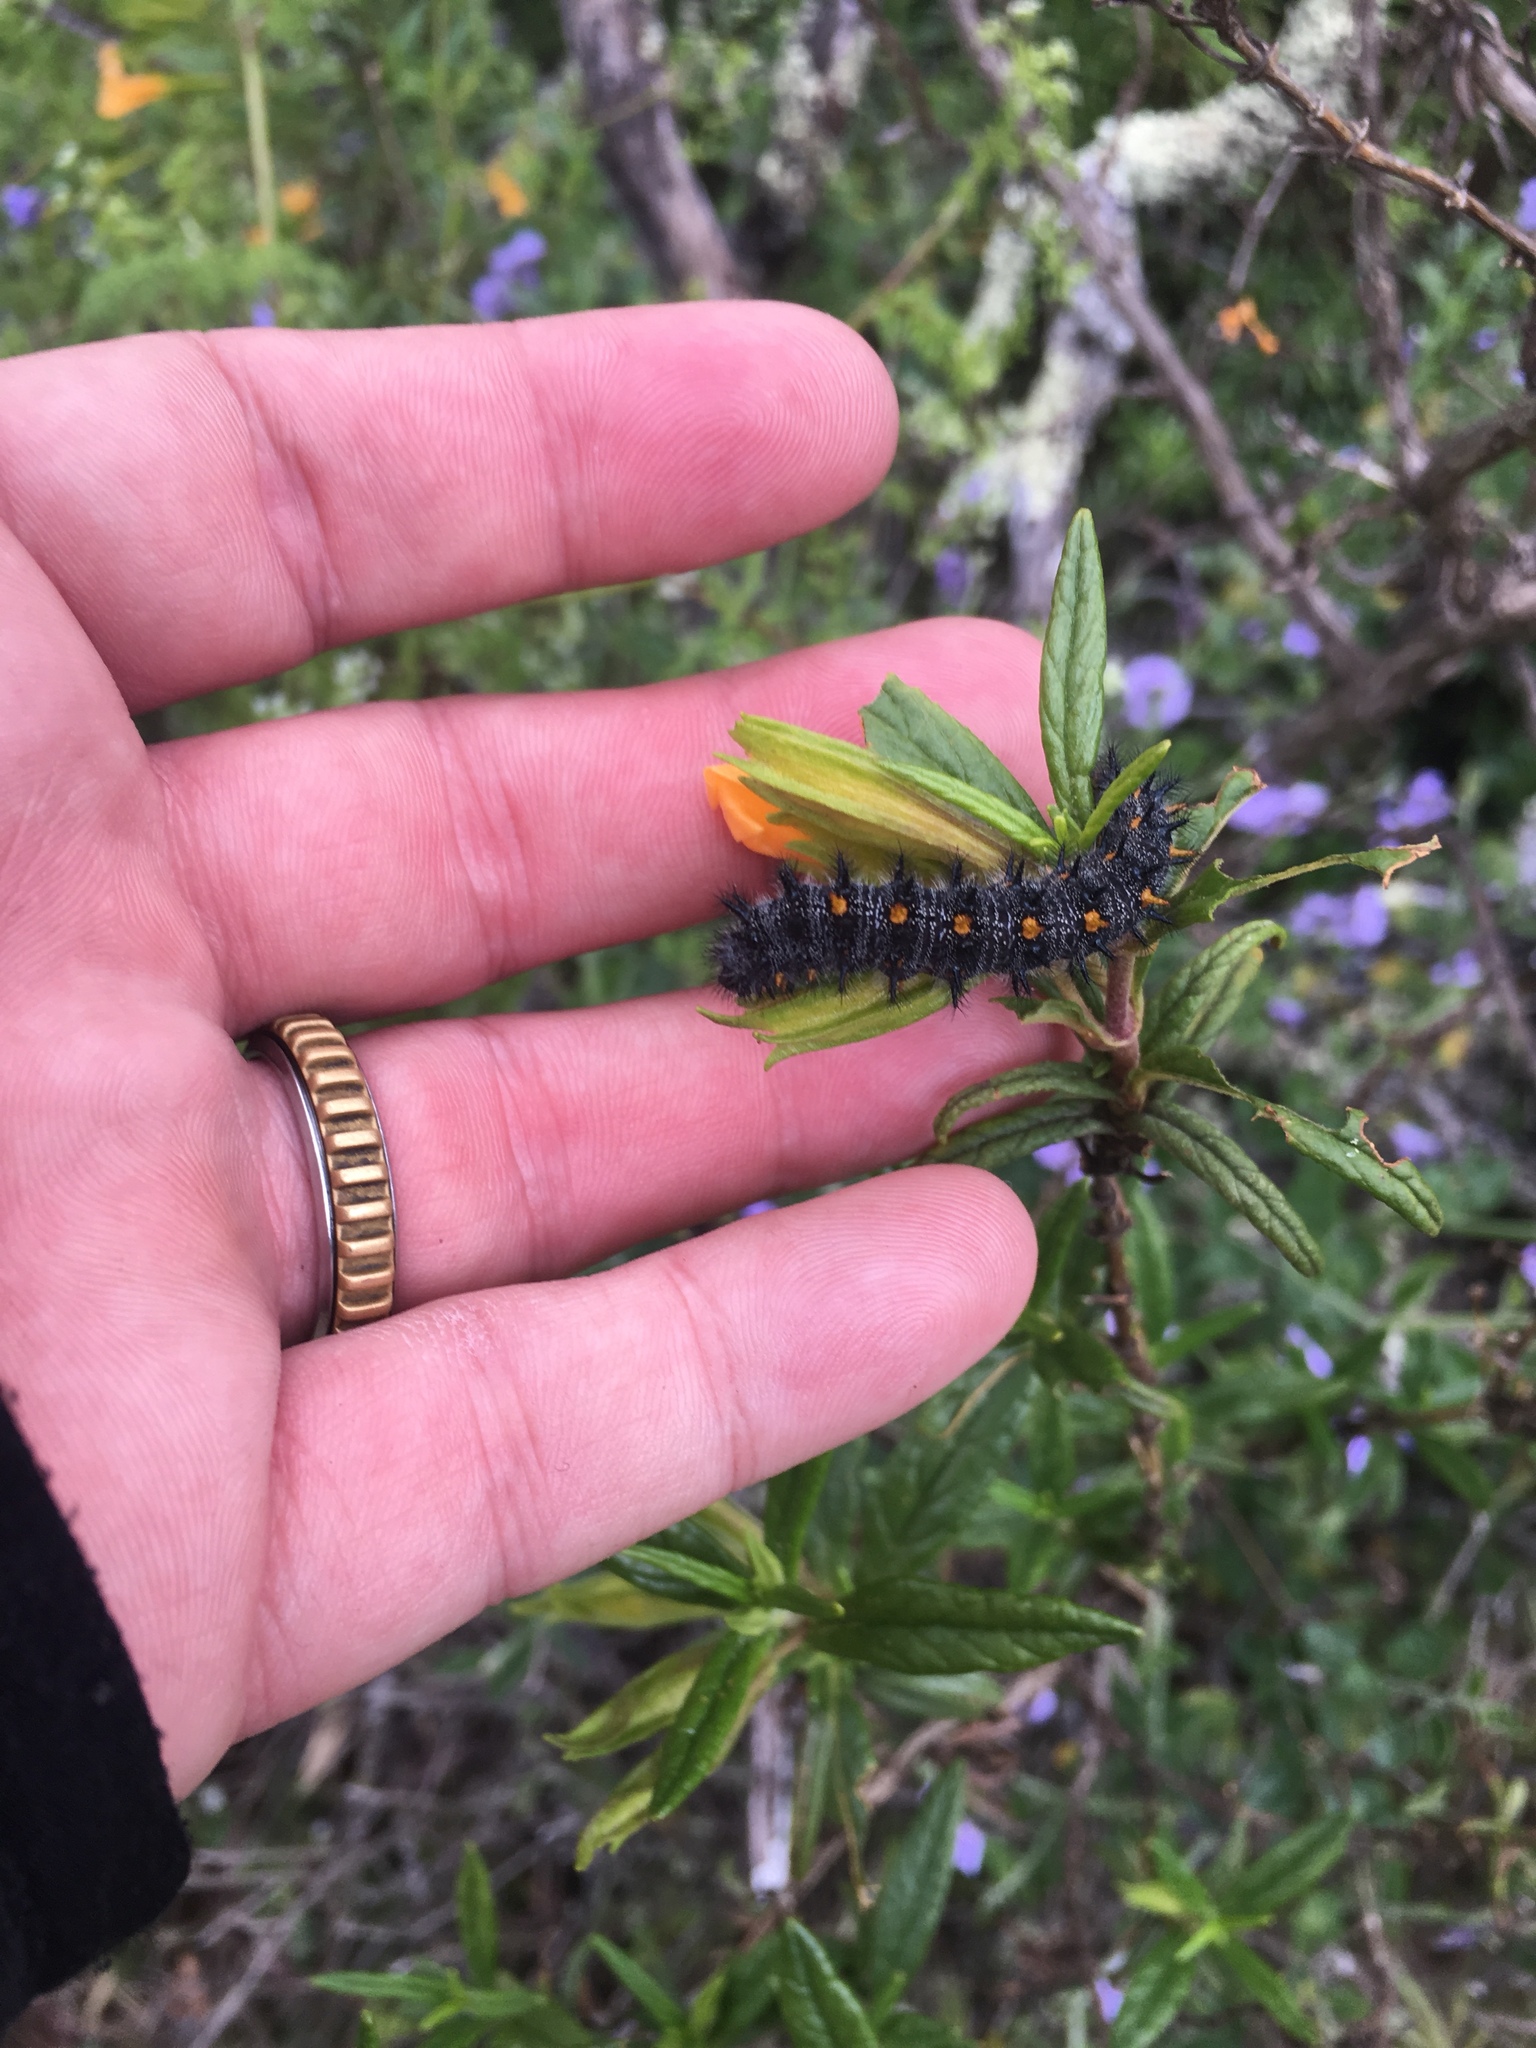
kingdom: Animalia
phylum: Arthropoda
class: Insecta
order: Lepidoptera
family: Nymphalidae
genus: Occidryas
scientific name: Occidryas chalcedona
